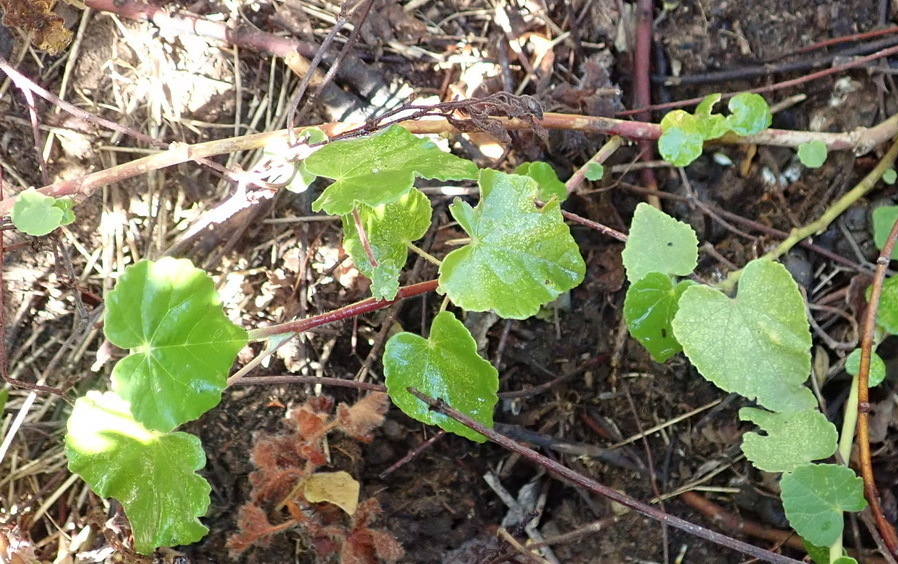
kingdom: Plantae
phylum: Tracheophyta
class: Magnoliopsida
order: Malvales
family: Malvaceae
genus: Abutilon
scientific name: Abutilon sonneratianum
